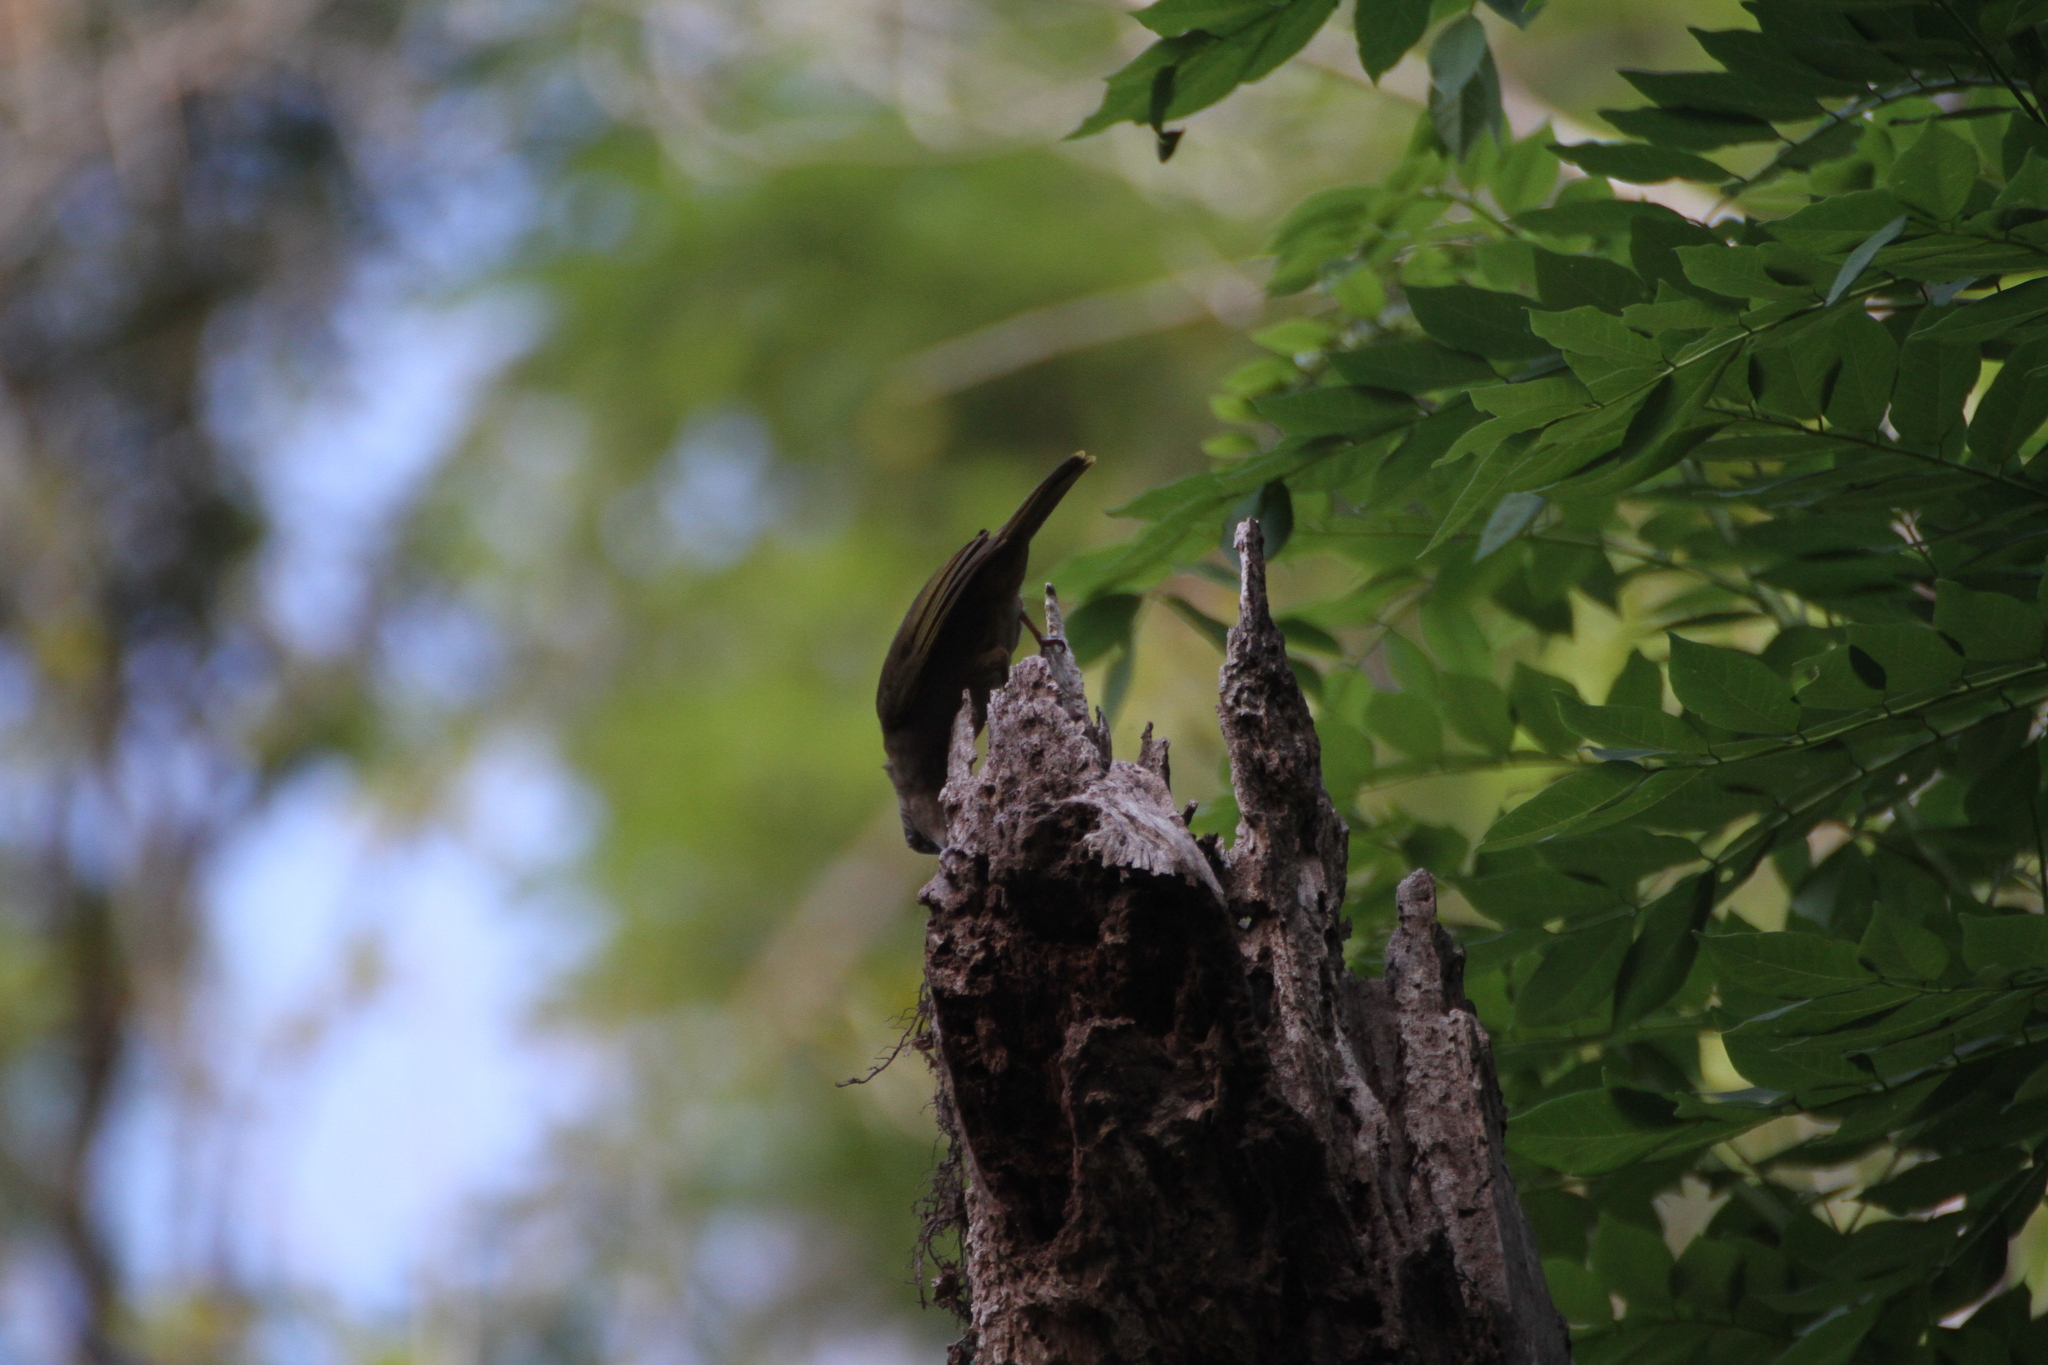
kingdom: Animalia
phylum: Chordata
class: Aves
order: Passeriformes
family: Pycnonotidae
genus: Pycnonotus
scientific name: Pycnonotus plumosus
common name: Olive-winged bulbul
